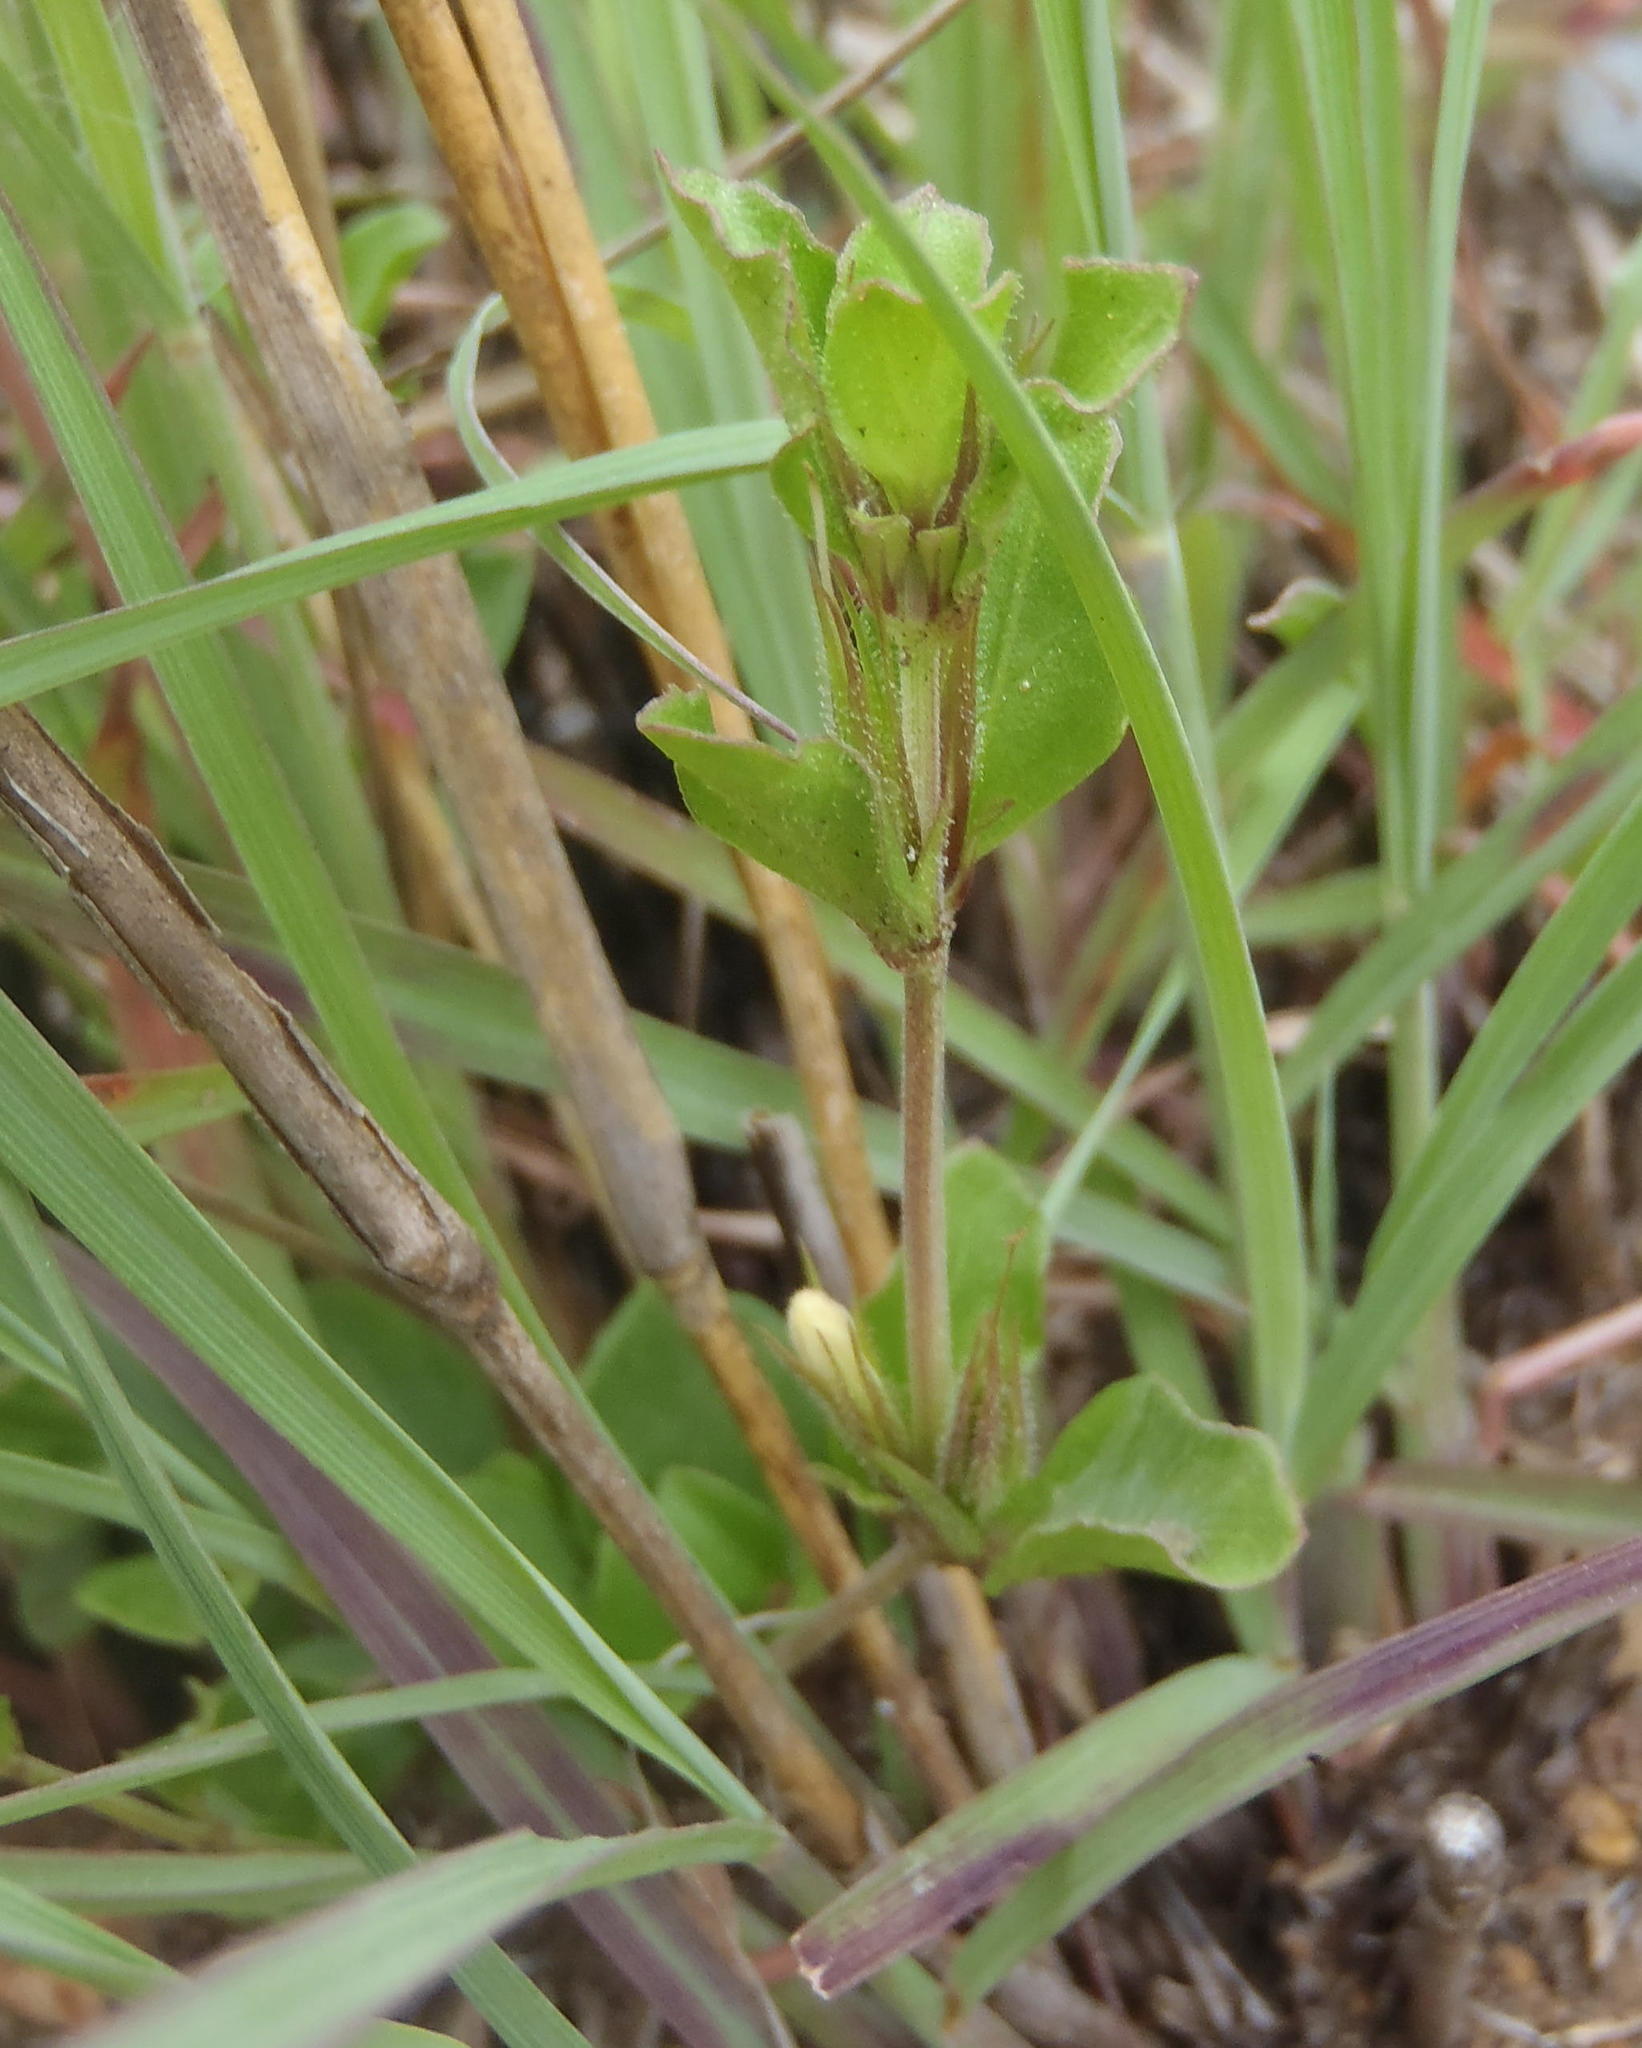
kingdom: Plantae
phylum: Tracheophyta
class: Magnoliopsida
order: Lamiales
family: Acanthaceae
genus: Dyschoriste
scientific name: Dyschoriste setigera
